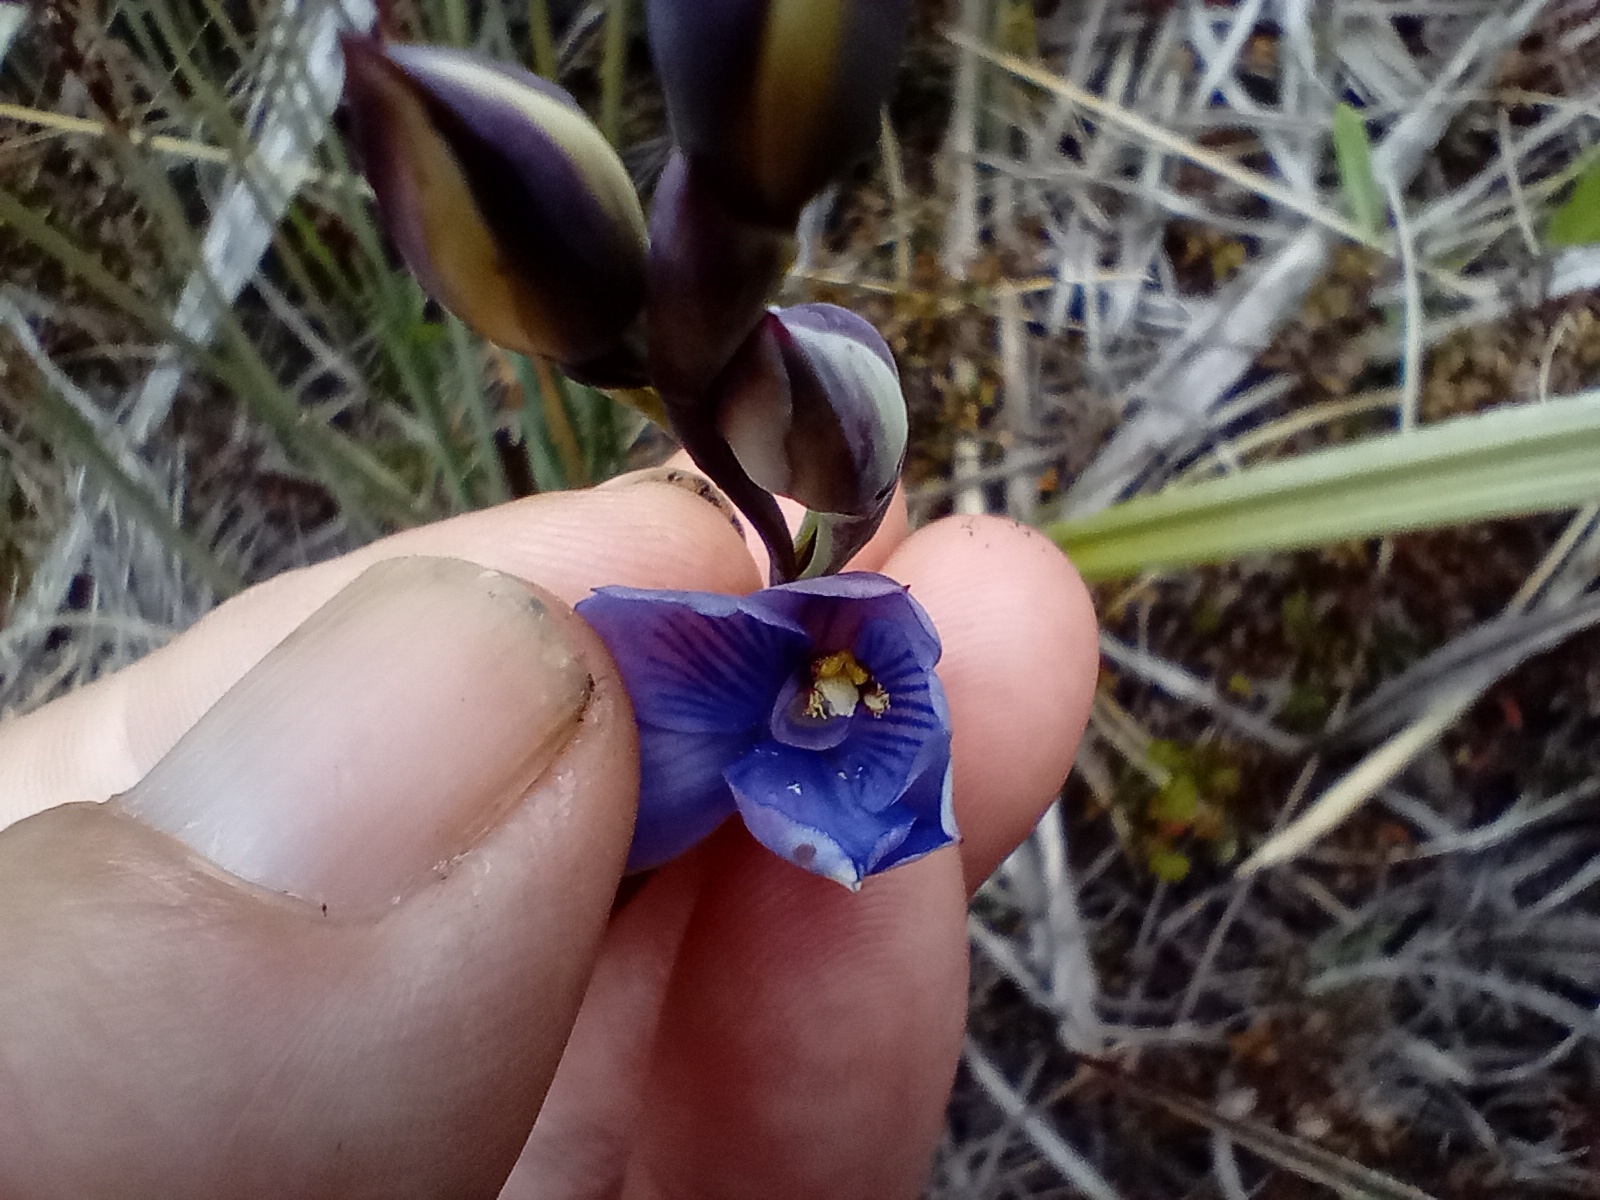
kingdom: Plantae
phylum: Tracheophyta
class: Liliopsida
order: Asparagales
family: Orchidaceae
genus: Thelymitra
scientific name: Thelymitra pulchella
